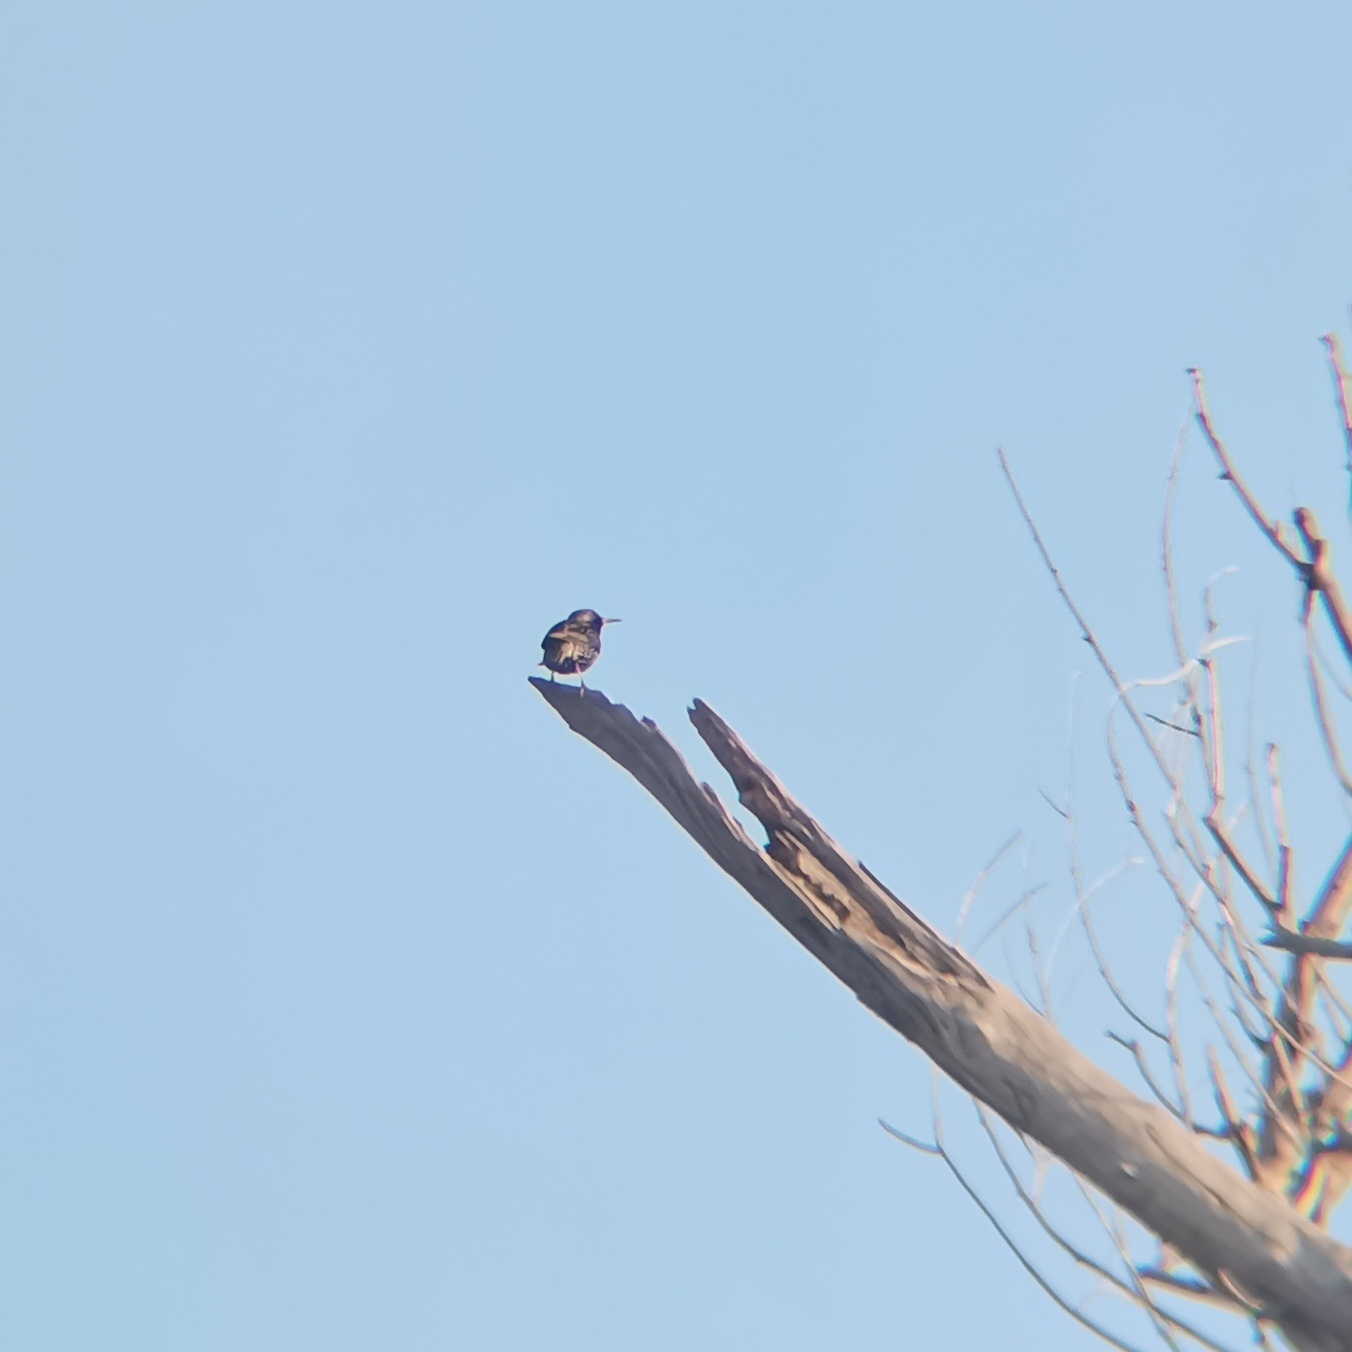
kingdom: Animalia
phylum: Chordata
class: Aves
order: Passeriformes
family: Sturnidae
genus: Sturnus
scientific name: Sturnus vulgaris
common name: Common starling
